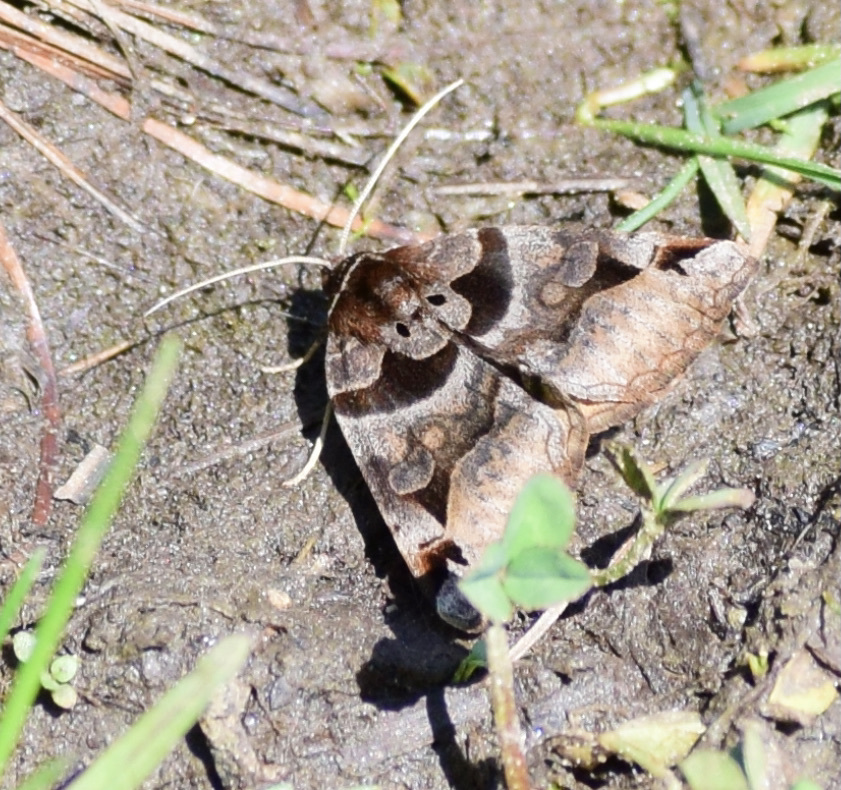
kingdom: Animalia
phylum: Arthropoda
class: Insecta
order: Lepidoptera
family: Erebidae
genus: Euclidia
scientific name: Euclidia cuspidea
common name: Toothed somberwing
